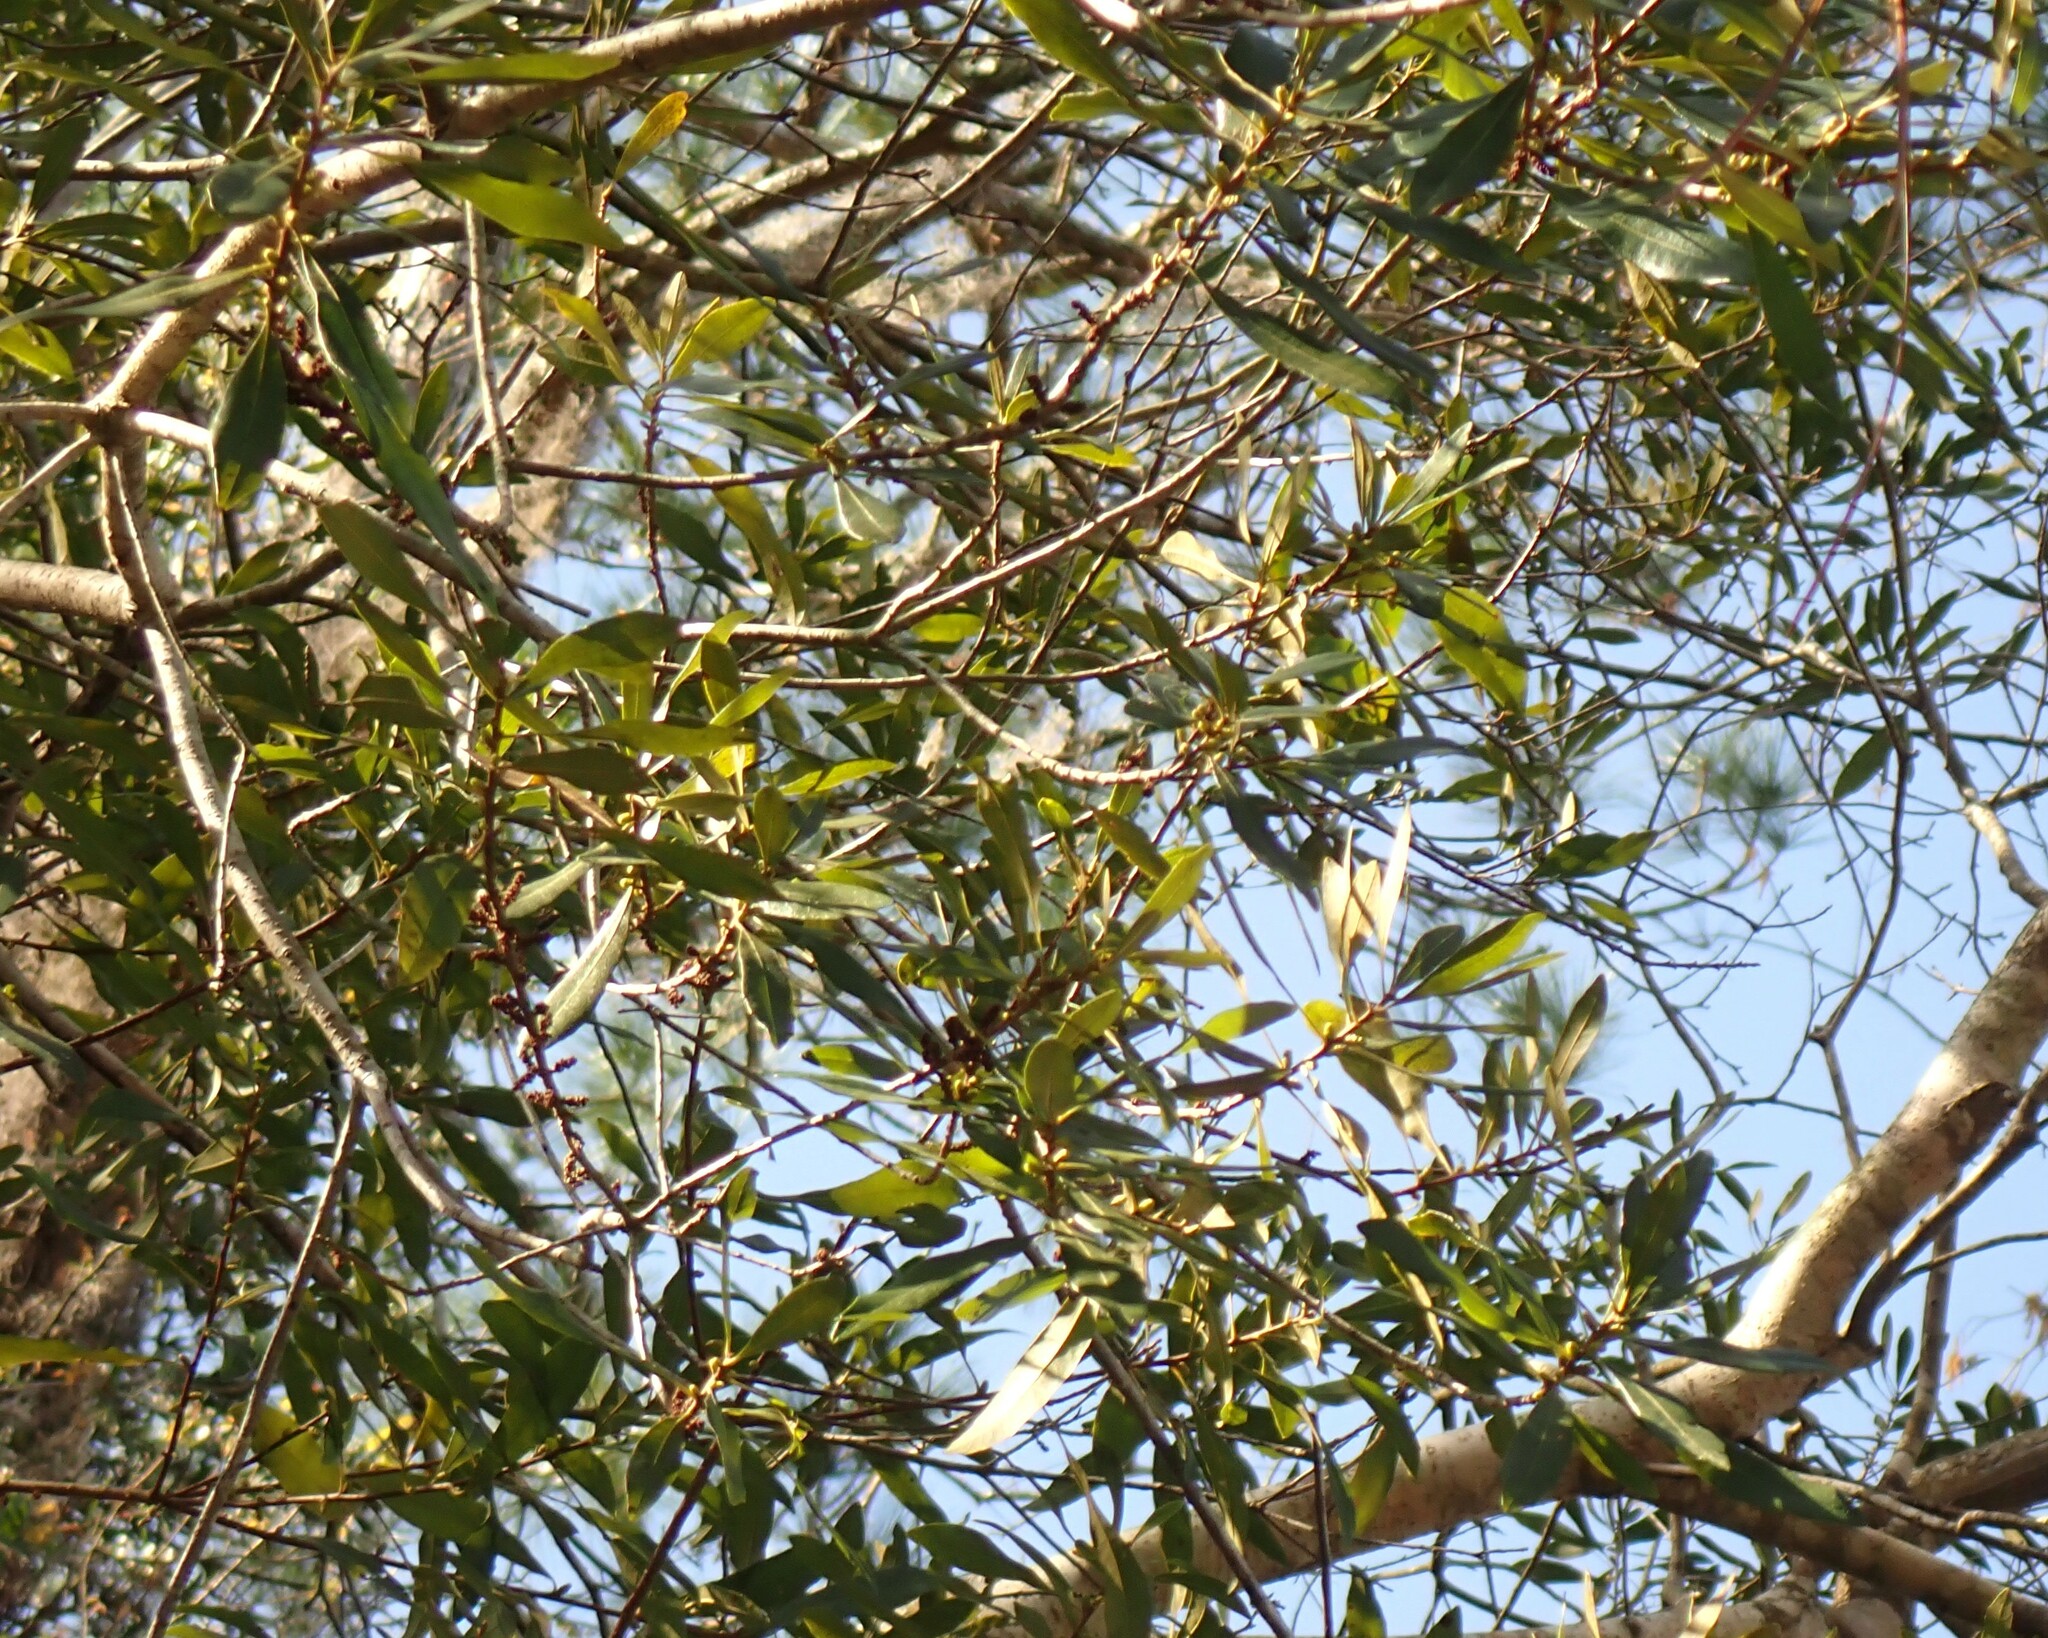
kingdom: Plantae
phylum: Tracheophyta
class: Magnoliopsida
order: Fagales
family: Myricaceae
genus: Morella
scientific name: Morella cerifera
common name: Wax myrtle
